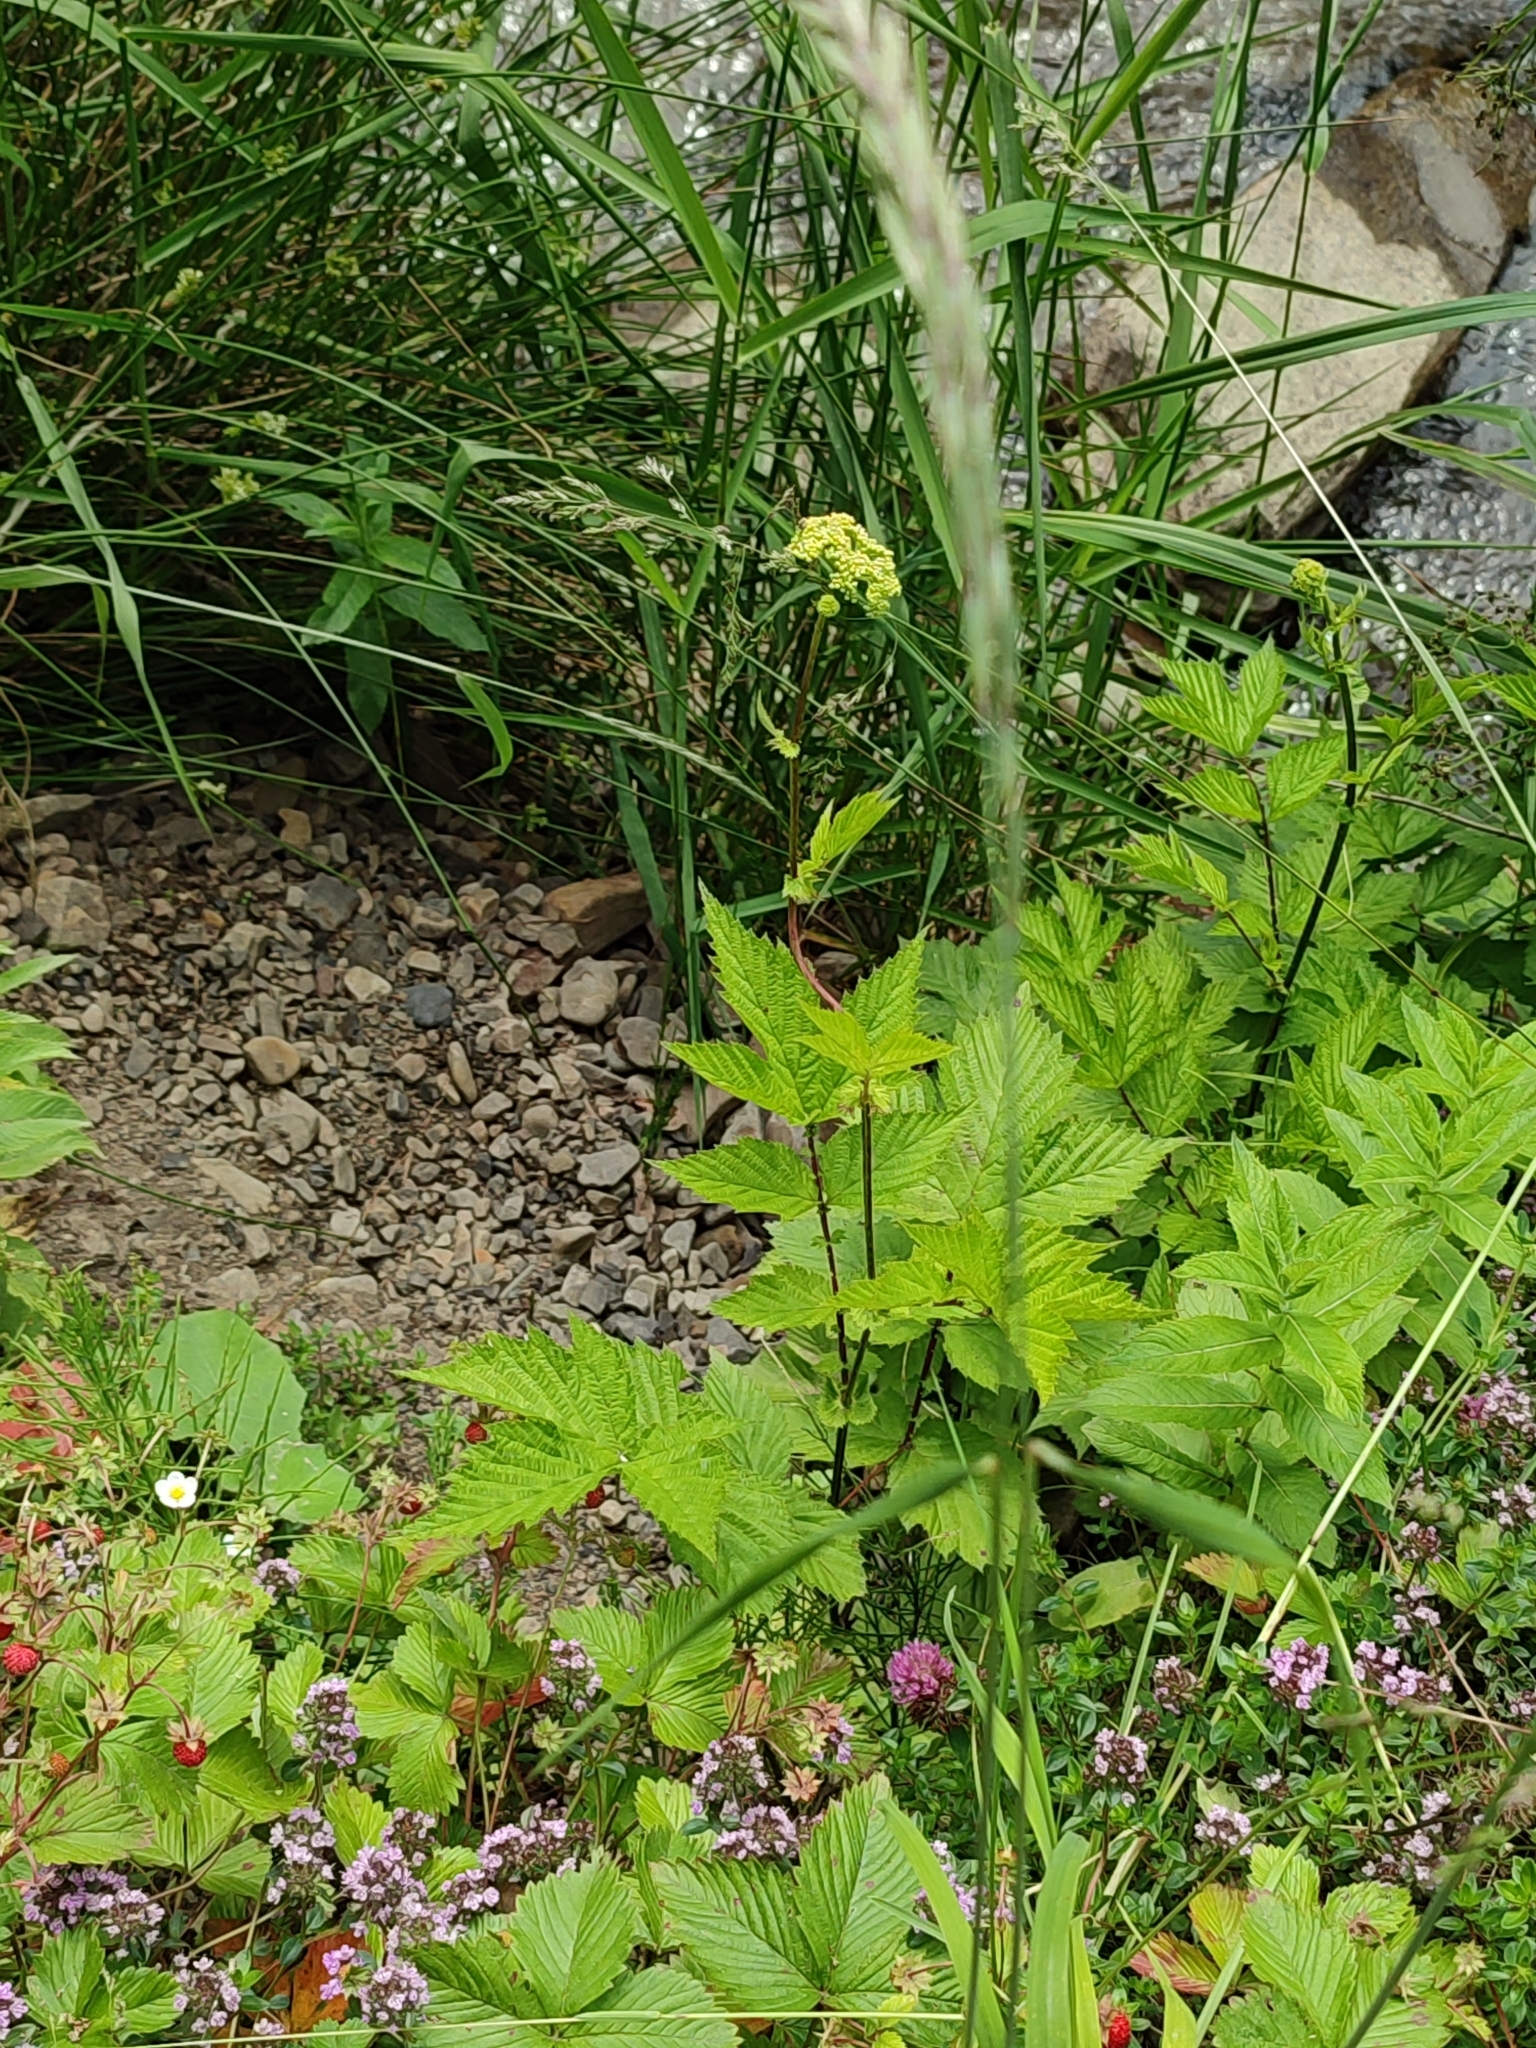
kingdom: Plantae
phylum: Tracheophyta
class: Magnoliopsida
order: Rosales
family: Rosaceae
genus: Filipendula
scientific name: Filipendula ulmaria
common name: Meadowsweet
